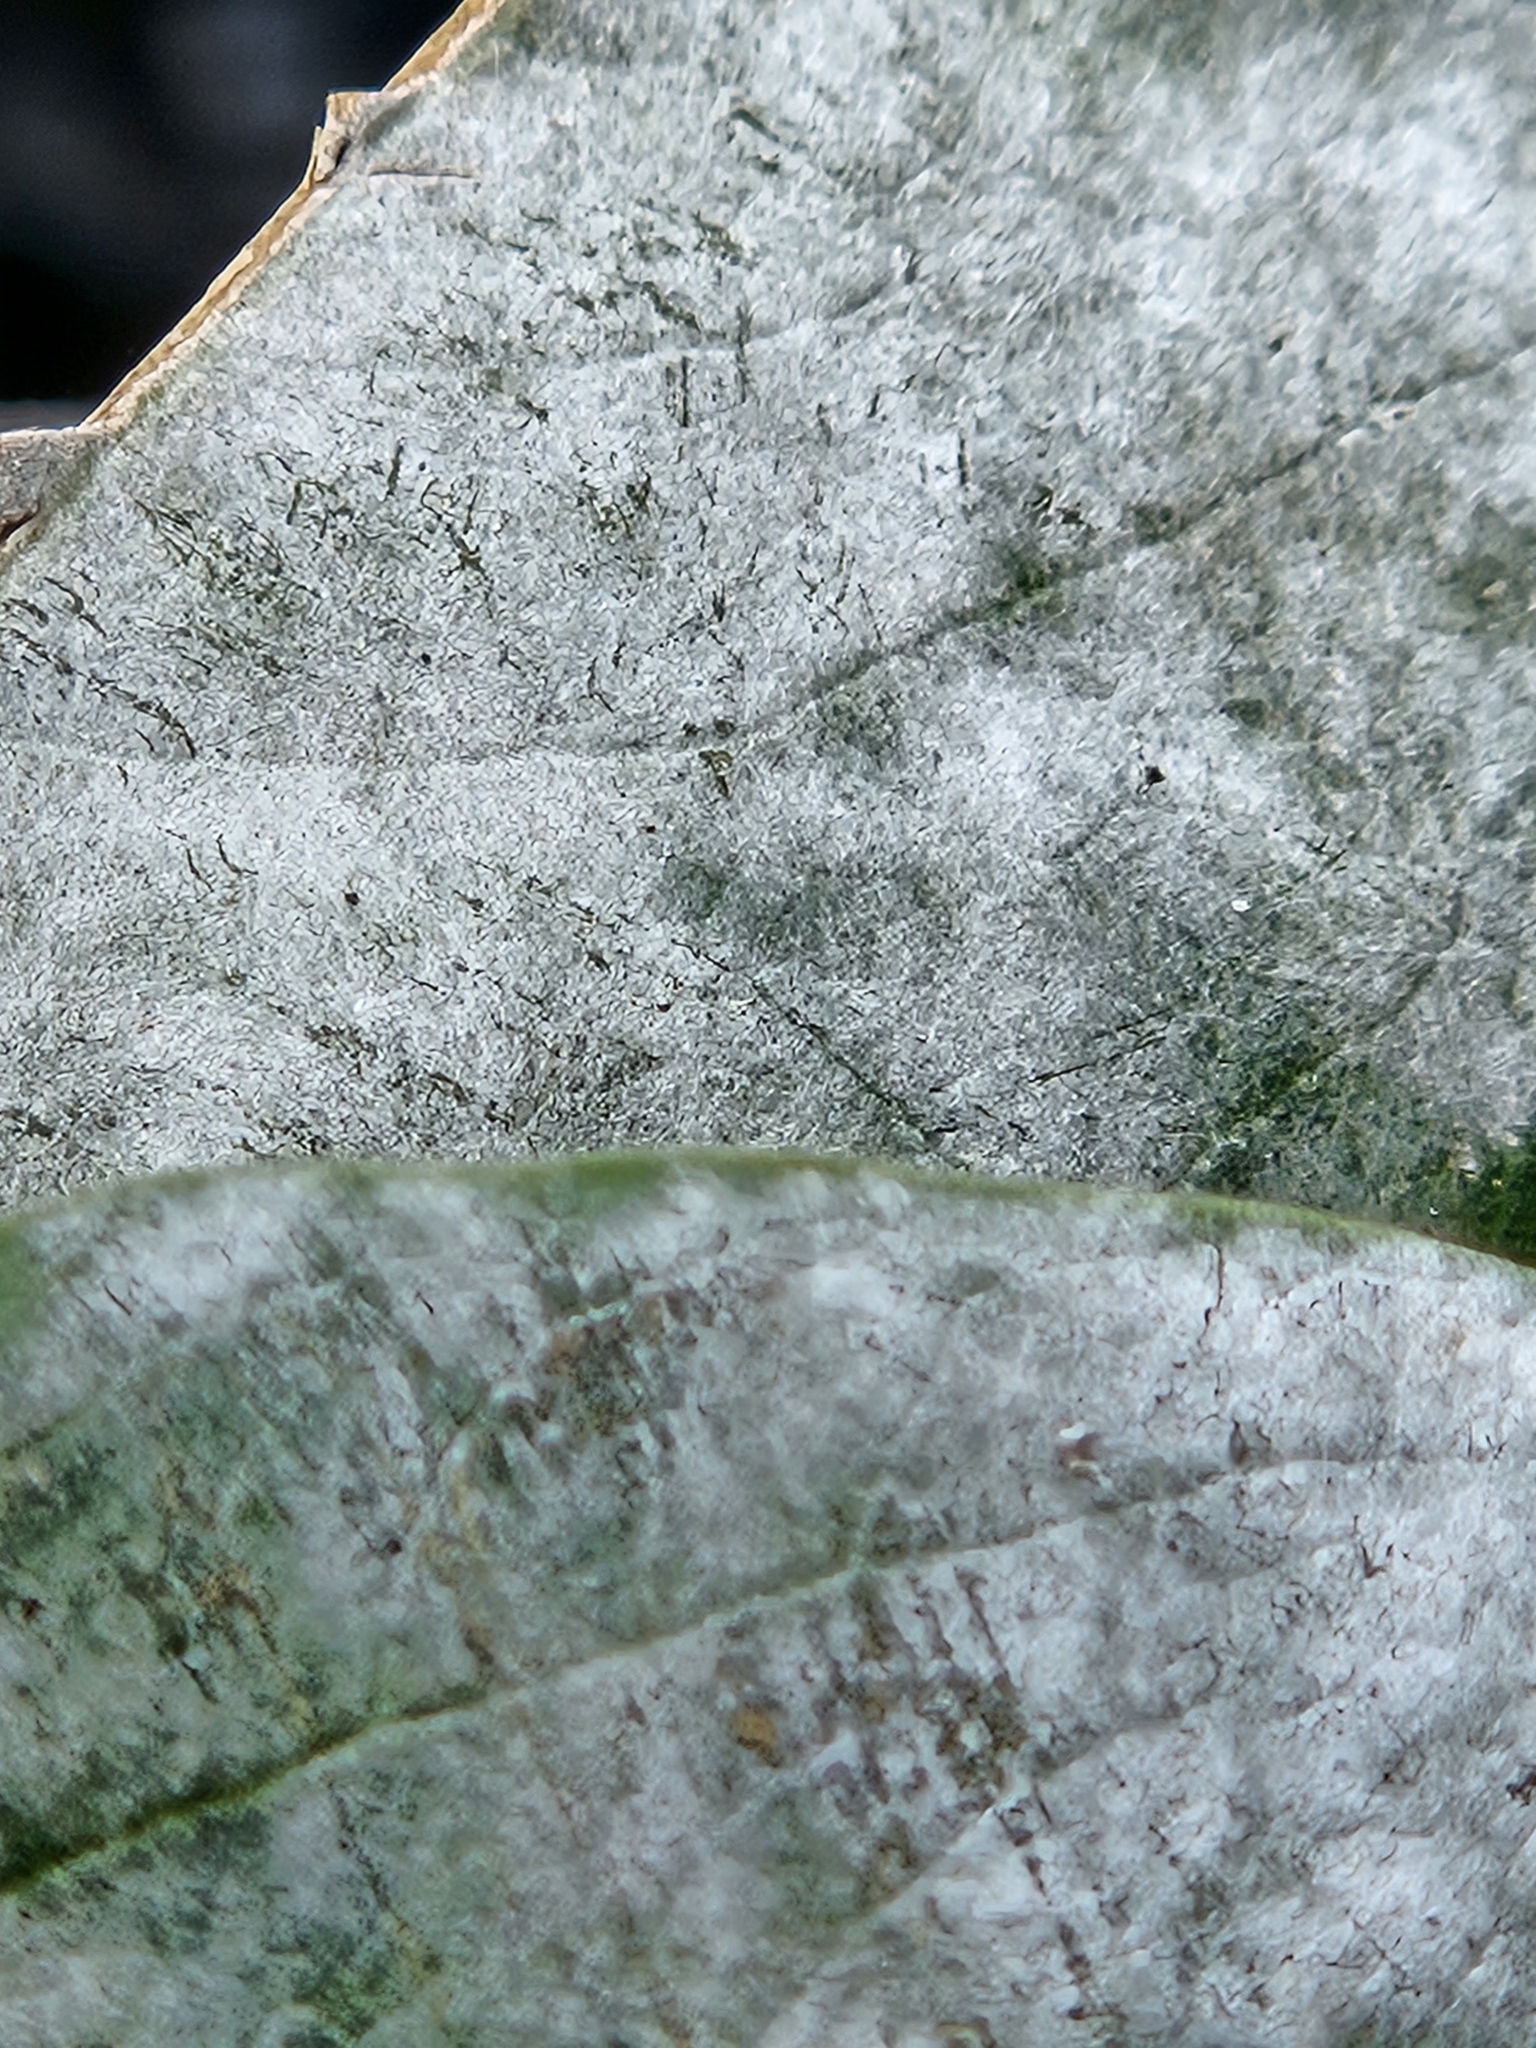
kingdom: Fungi
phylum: Ascomycota
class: Leotiomycetes
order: Helotiales
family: Erysiphaceae
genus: Erysiphe
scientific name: Erysiphe syringae
